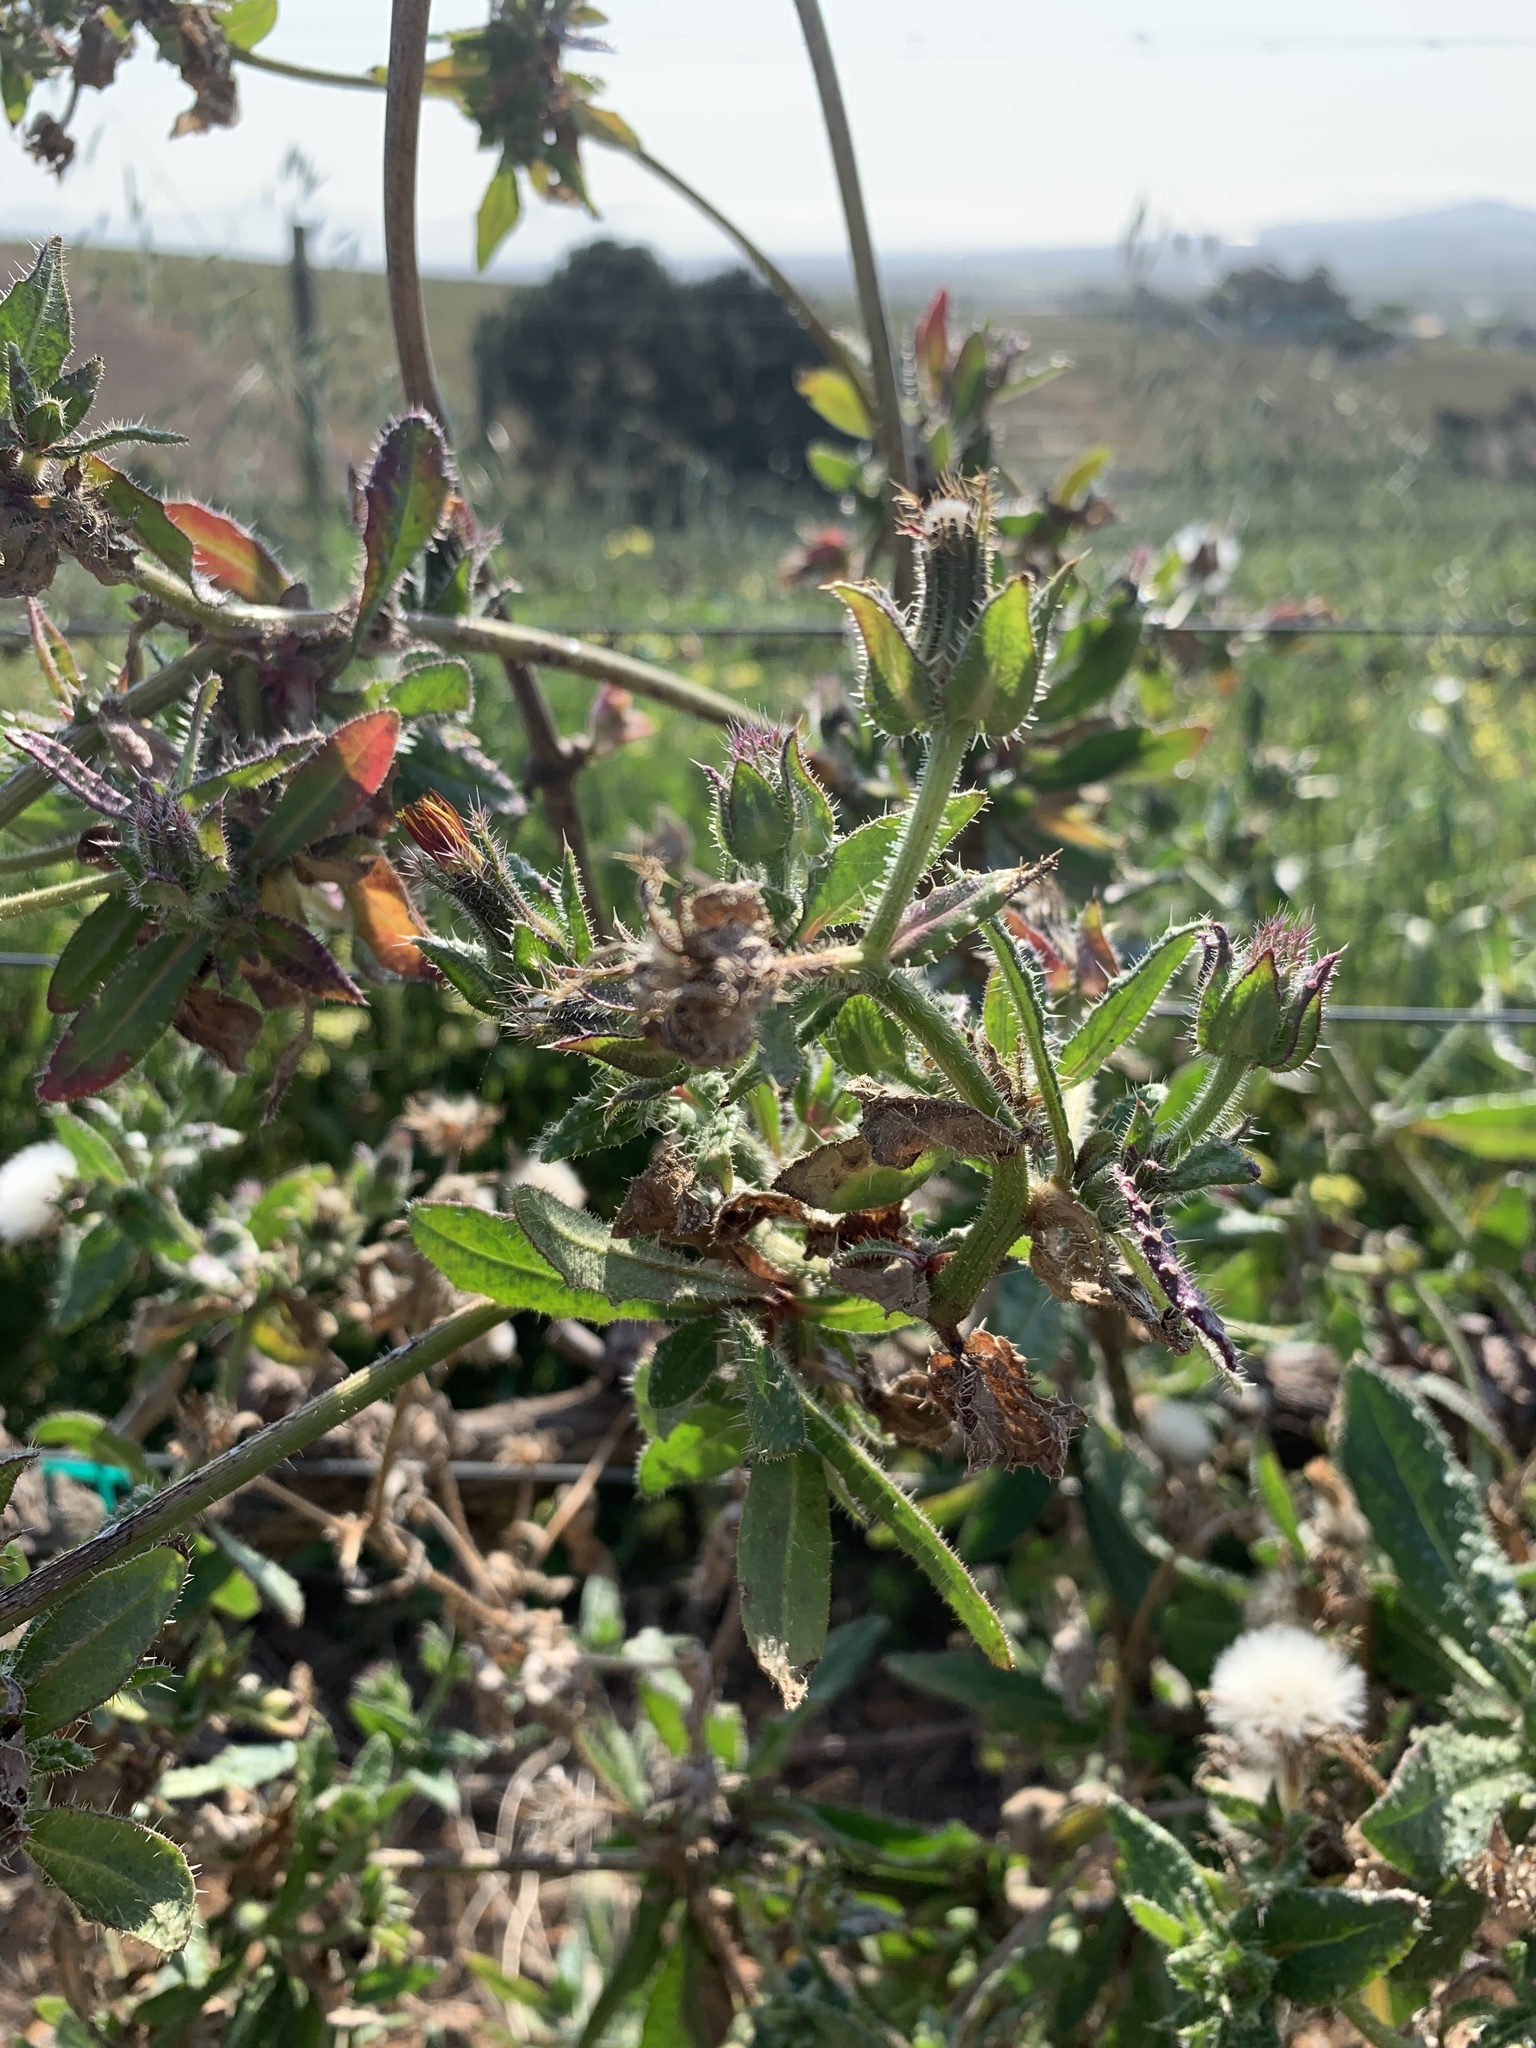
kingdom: Plantae
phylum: Tracheophyta
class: Magnoliopsida
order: Asterales
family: Asteraceae
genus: Helminthotheca
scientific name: Helminthotheca echioides
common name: Ox-tongue
